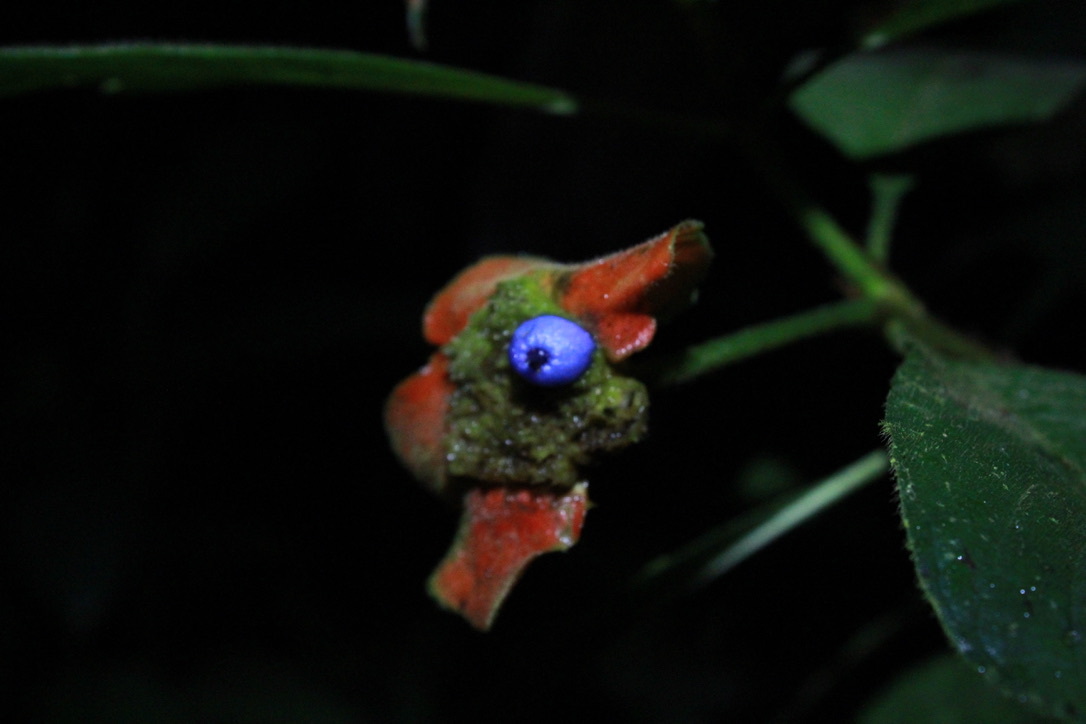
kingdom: Plantae
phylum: Tracheophyta
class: Magnoliopsida
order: Gentianales
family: Rubiaceae
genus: Palicourea
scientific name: Palicourea tomentosa
